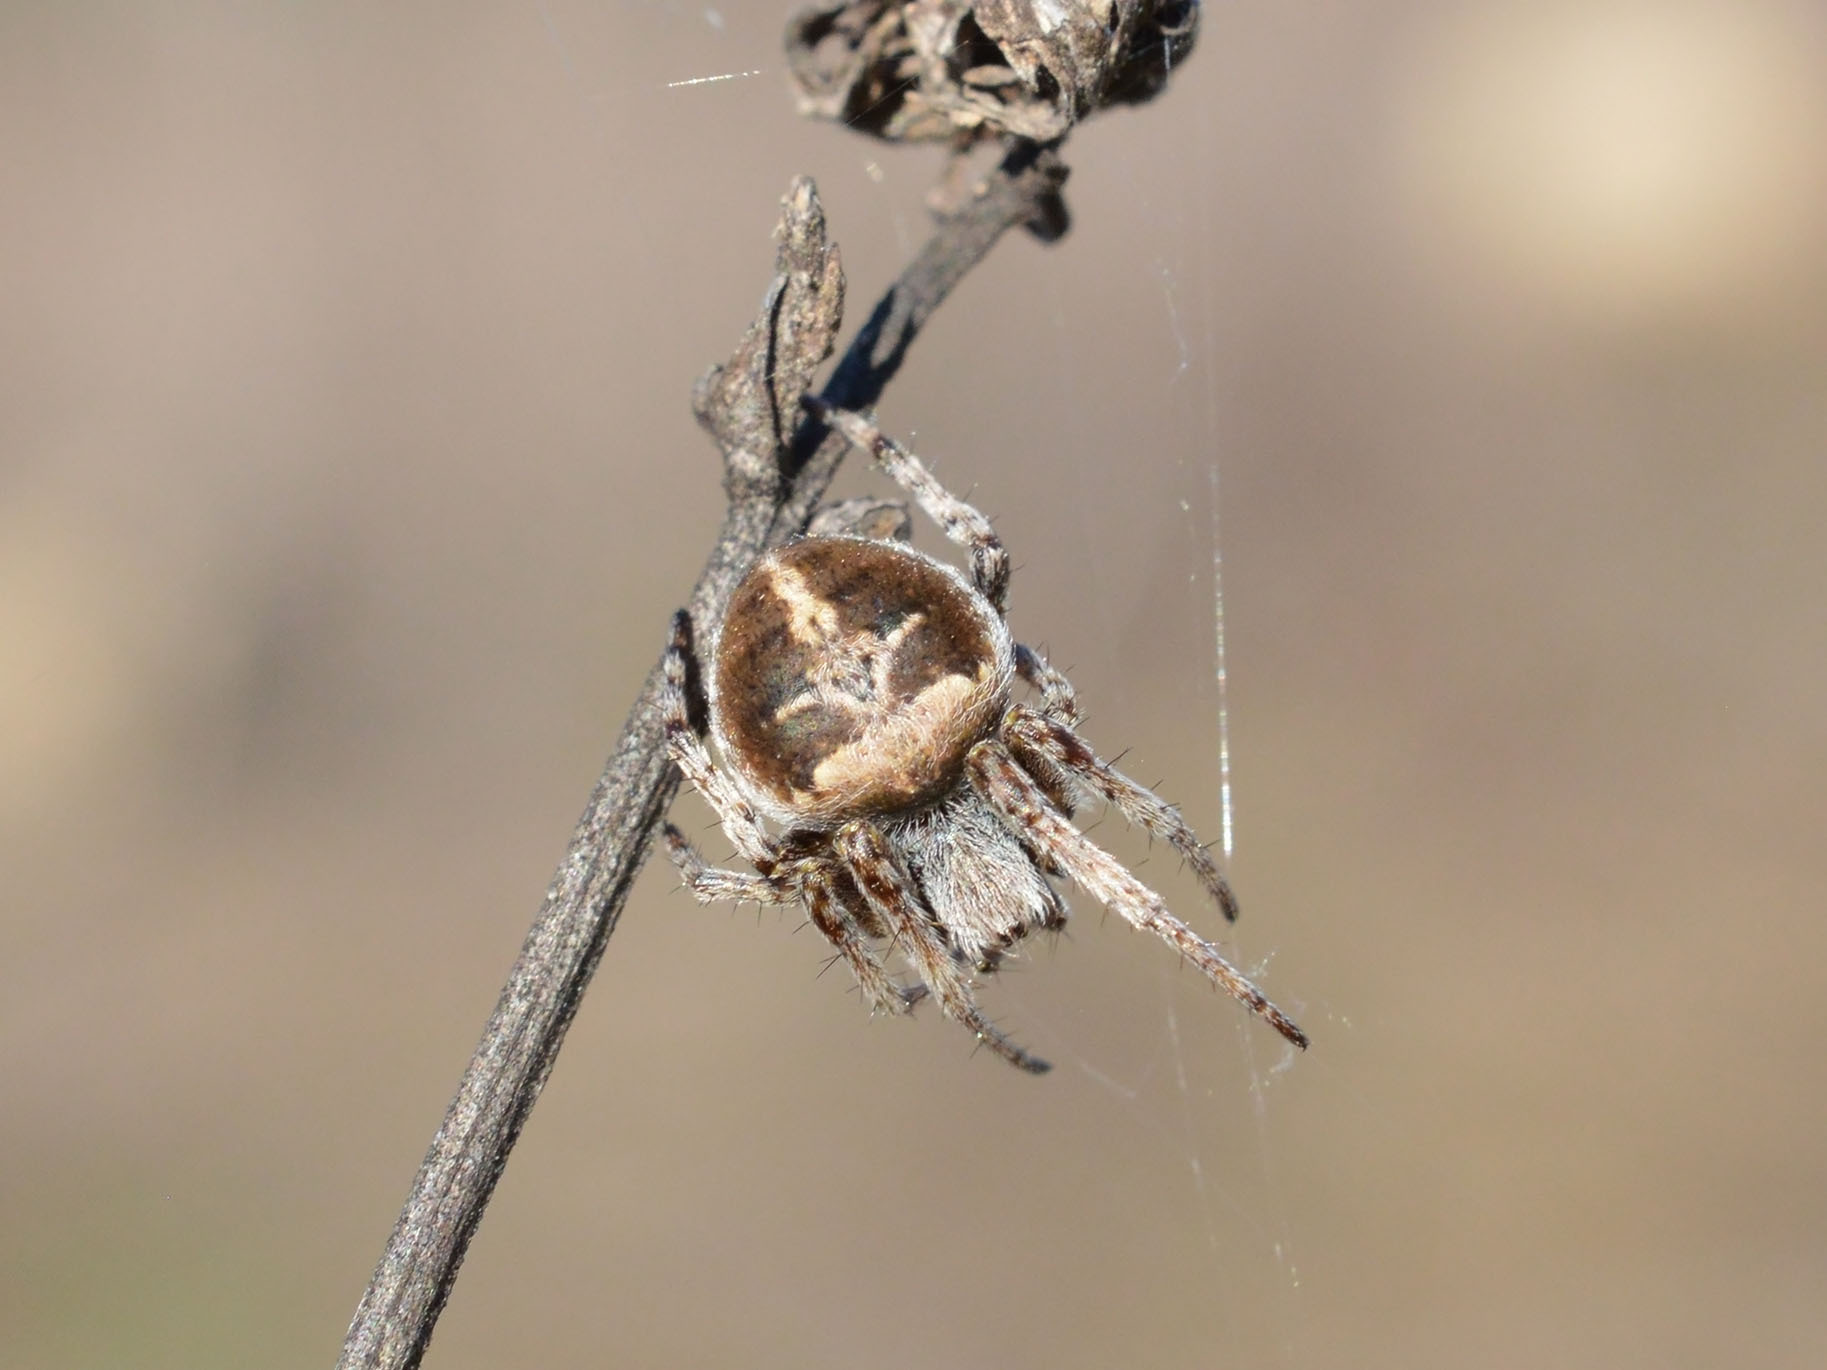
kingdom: Animalia
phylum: Arthropoda
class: Arachnida
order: Araneae
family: Araneidae
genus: Agalenatea
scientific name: Agalenatea redii
